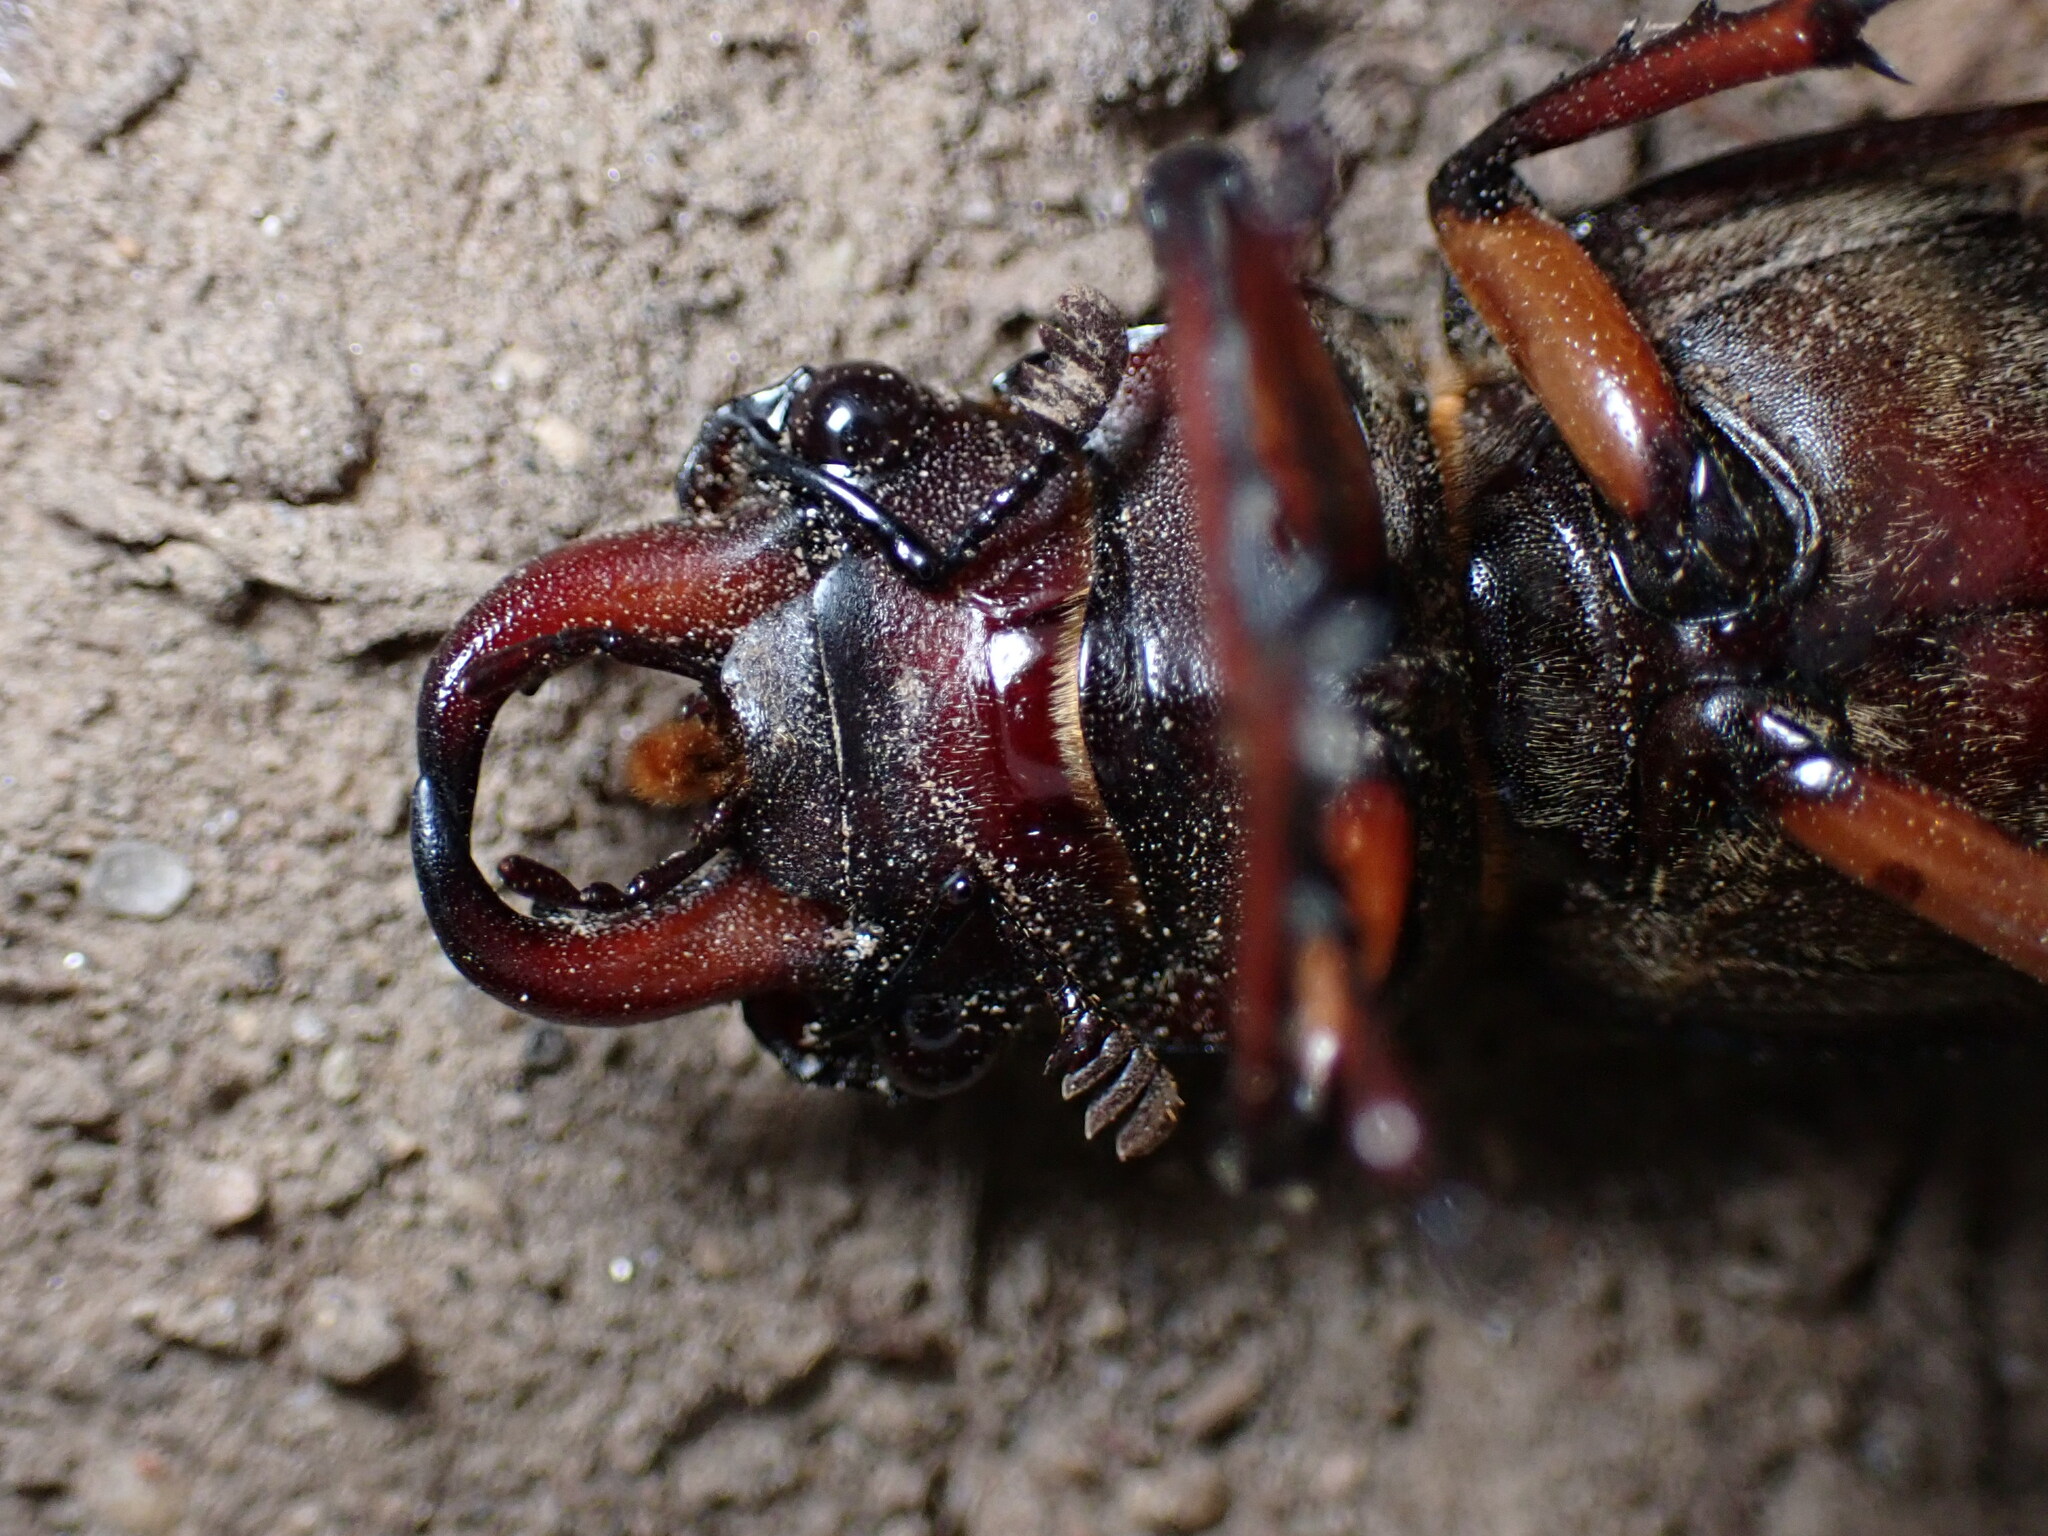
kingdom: Animalia
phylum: Arthropoda
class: Insecta
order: Coleoptera
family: Lucanidae
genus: Lucanus
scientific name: Lucanus capreolus
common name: Stag beetle
